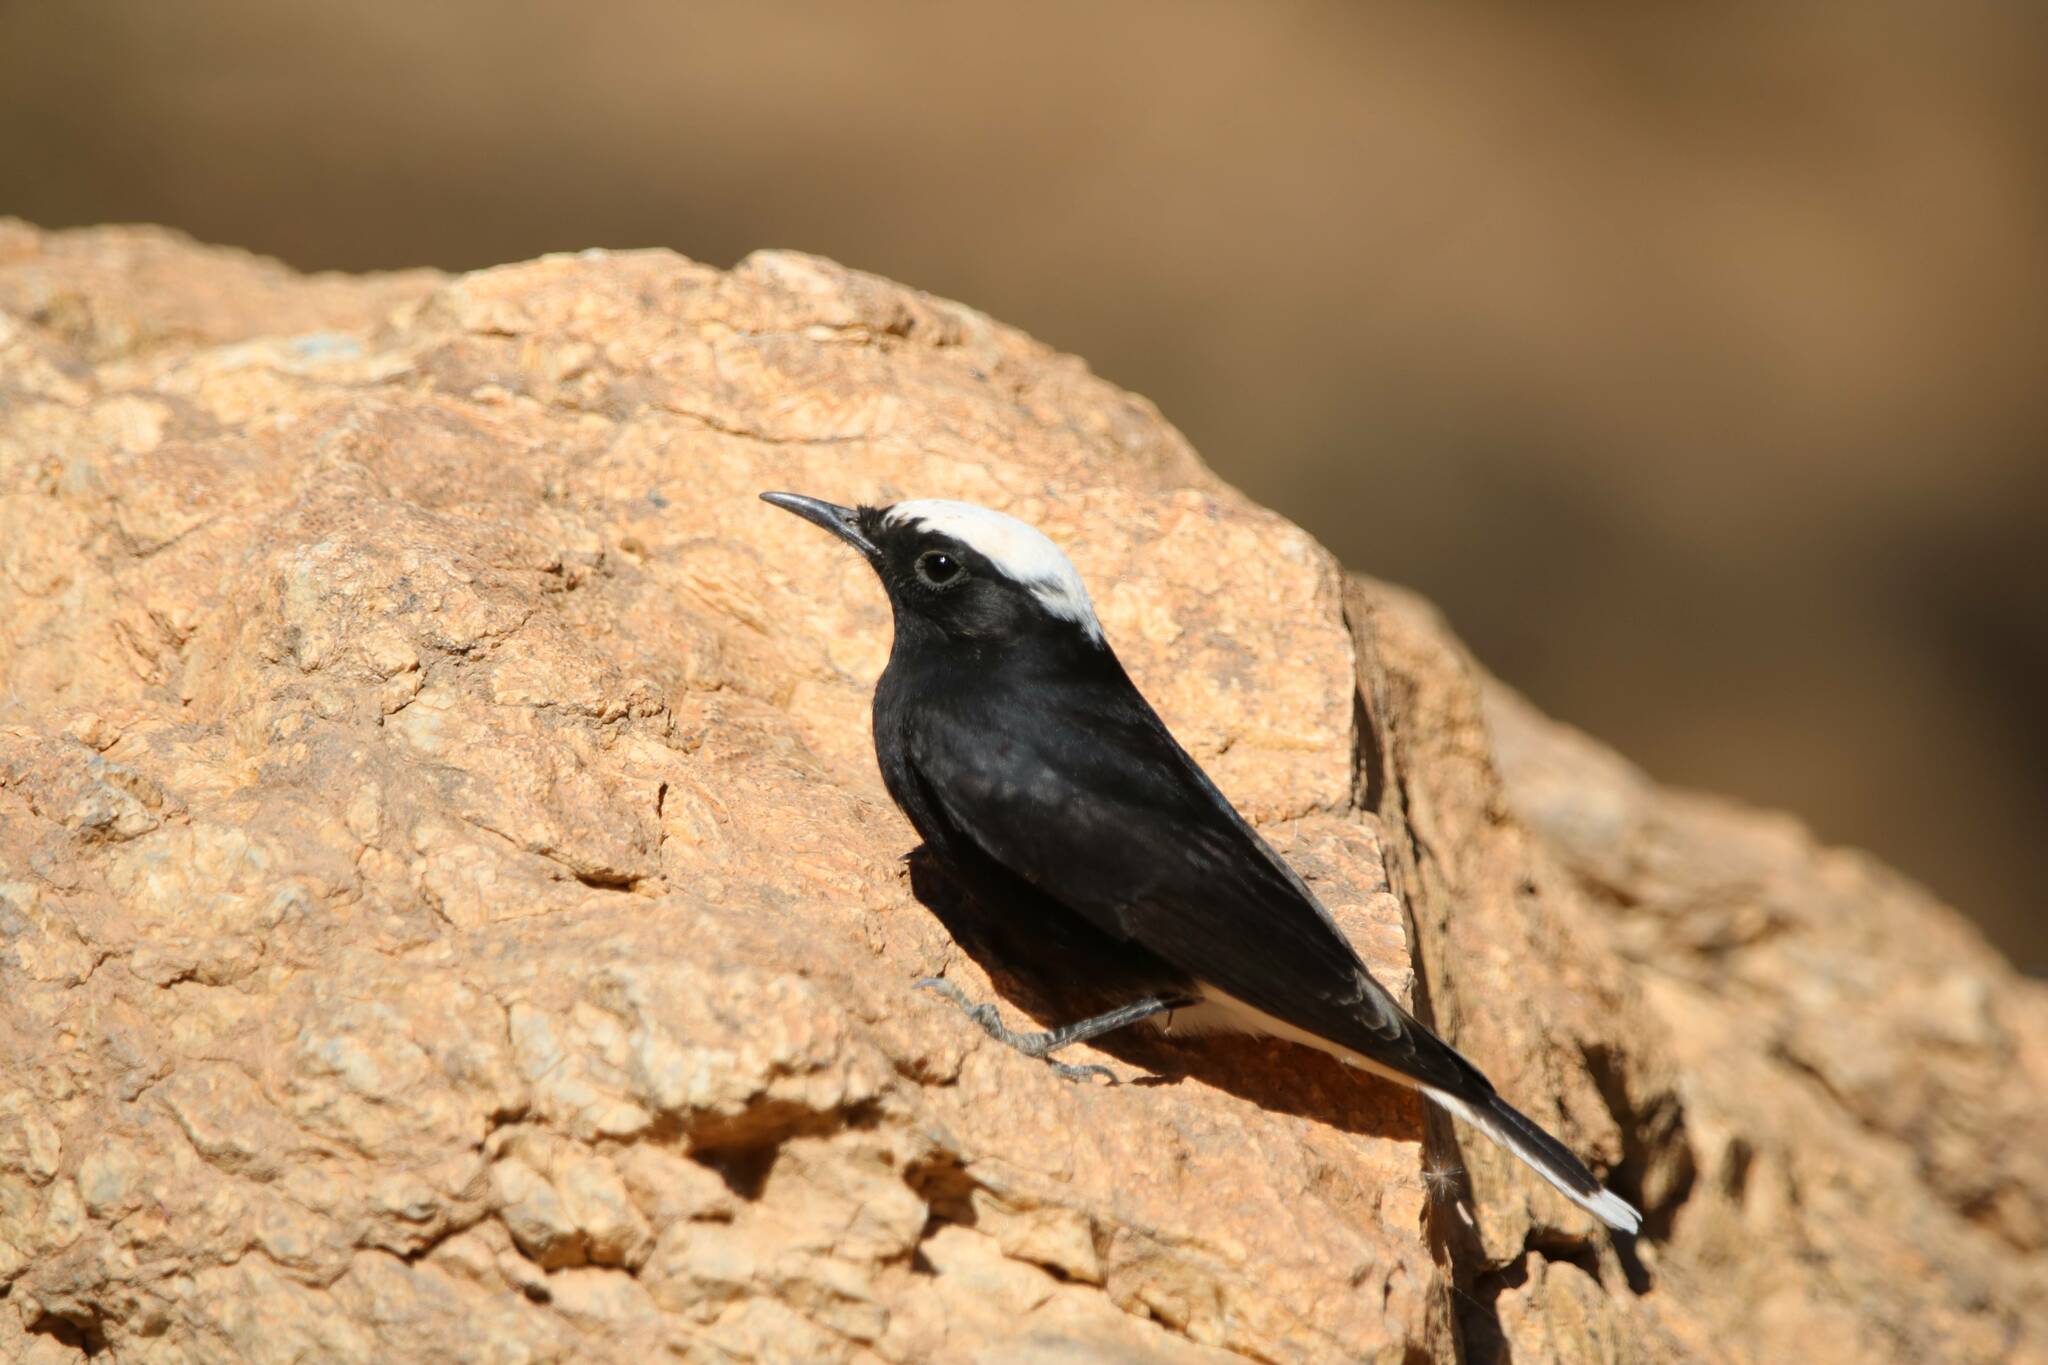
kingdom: Animalia
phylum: Chordata
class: Aves
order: Passeriformes
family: Muscicapidae
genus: Oenanthe
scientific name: Oenanthe leucopyga
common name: White-crowned wheatear
